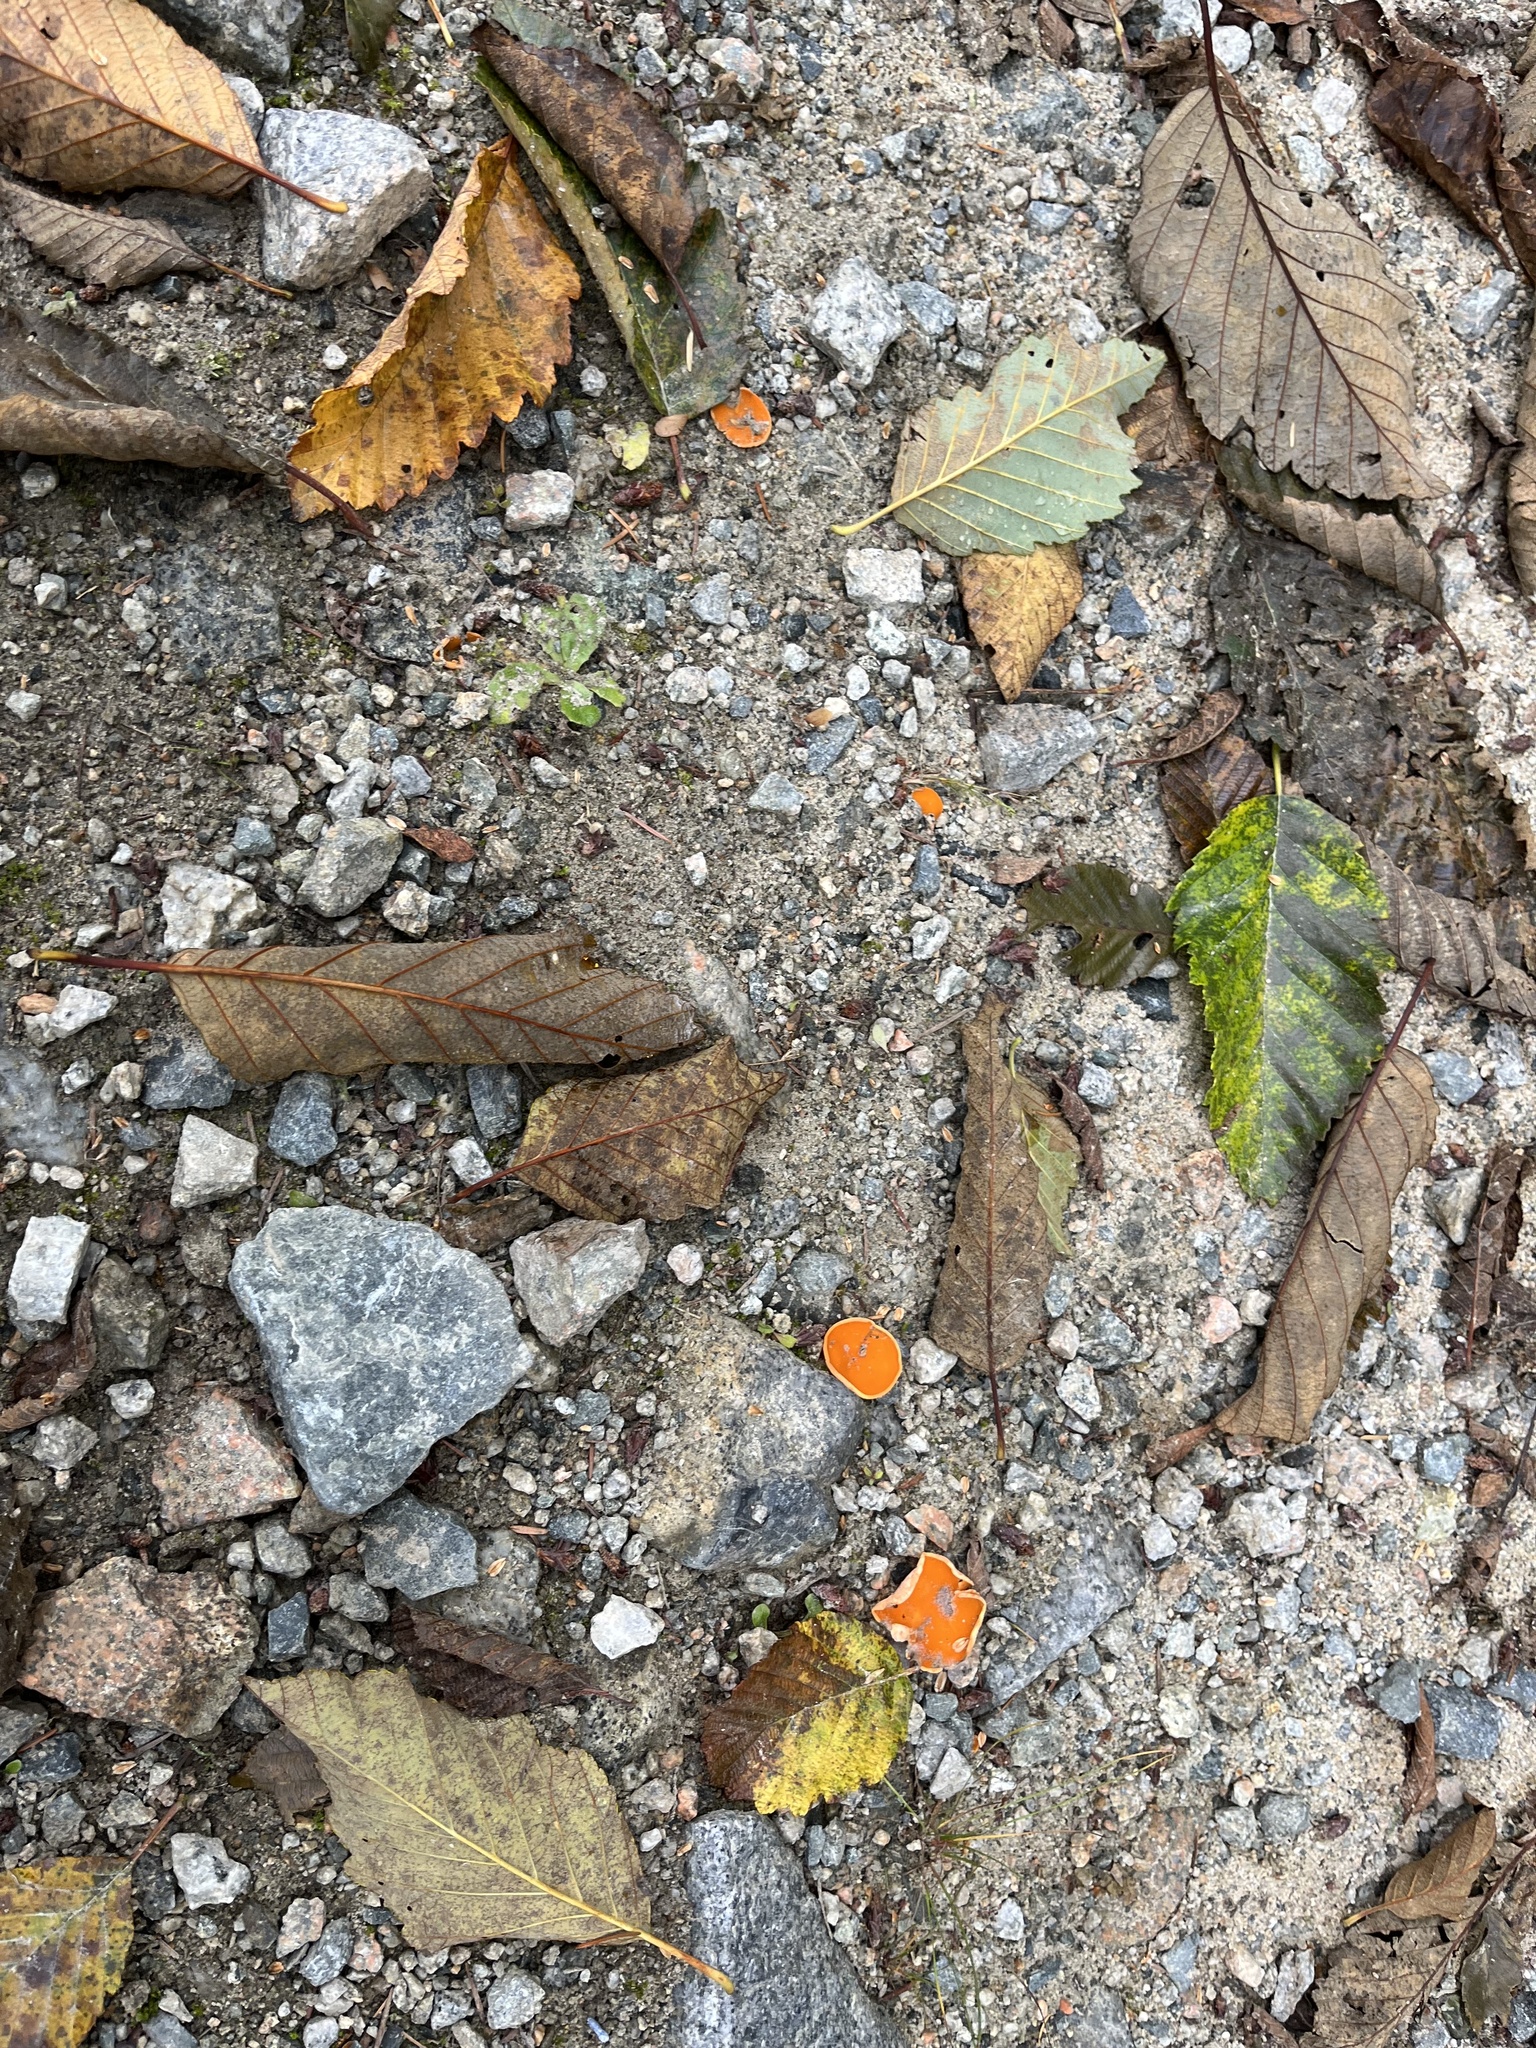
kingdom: Fungi
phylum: Ascomycota
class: Pezizomycetes
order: Pezizales
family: Pyronemataceae
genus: Aleuria
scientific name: Aleuria aurantia
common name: Orange peel fungus
